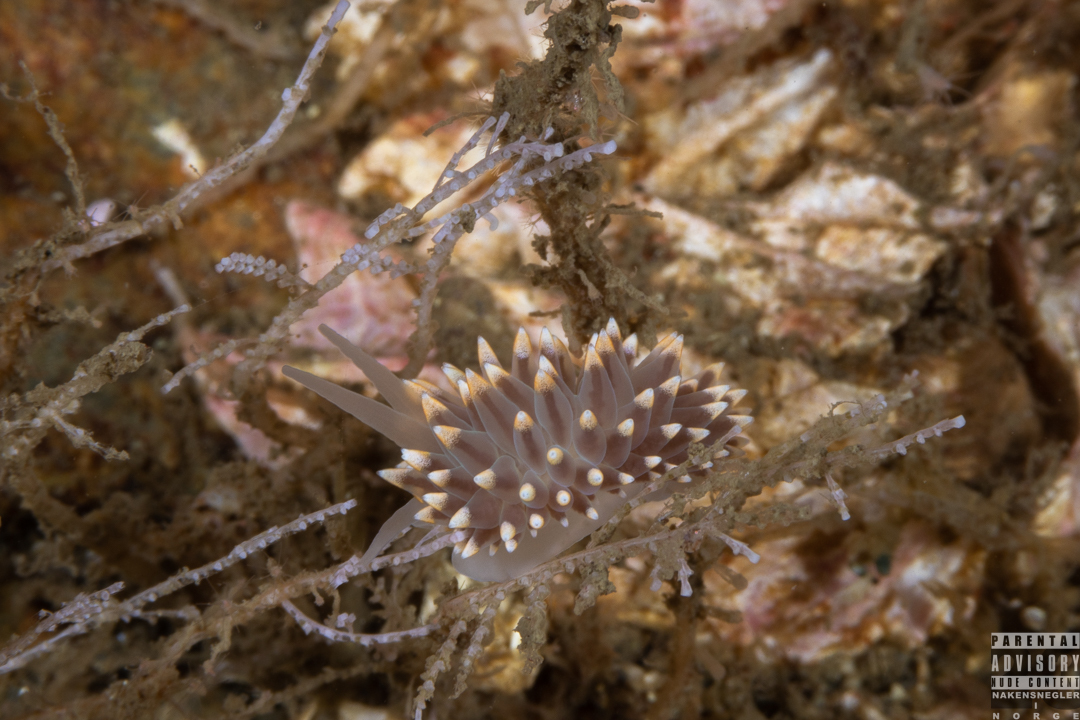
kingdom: Animalia
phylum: Mollusca
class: Gastropoda
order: Nudibranchia
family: Eubranchidae
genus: Eubranchus
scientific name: Eubranchus tricolor
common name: Painted balloon aeolis
